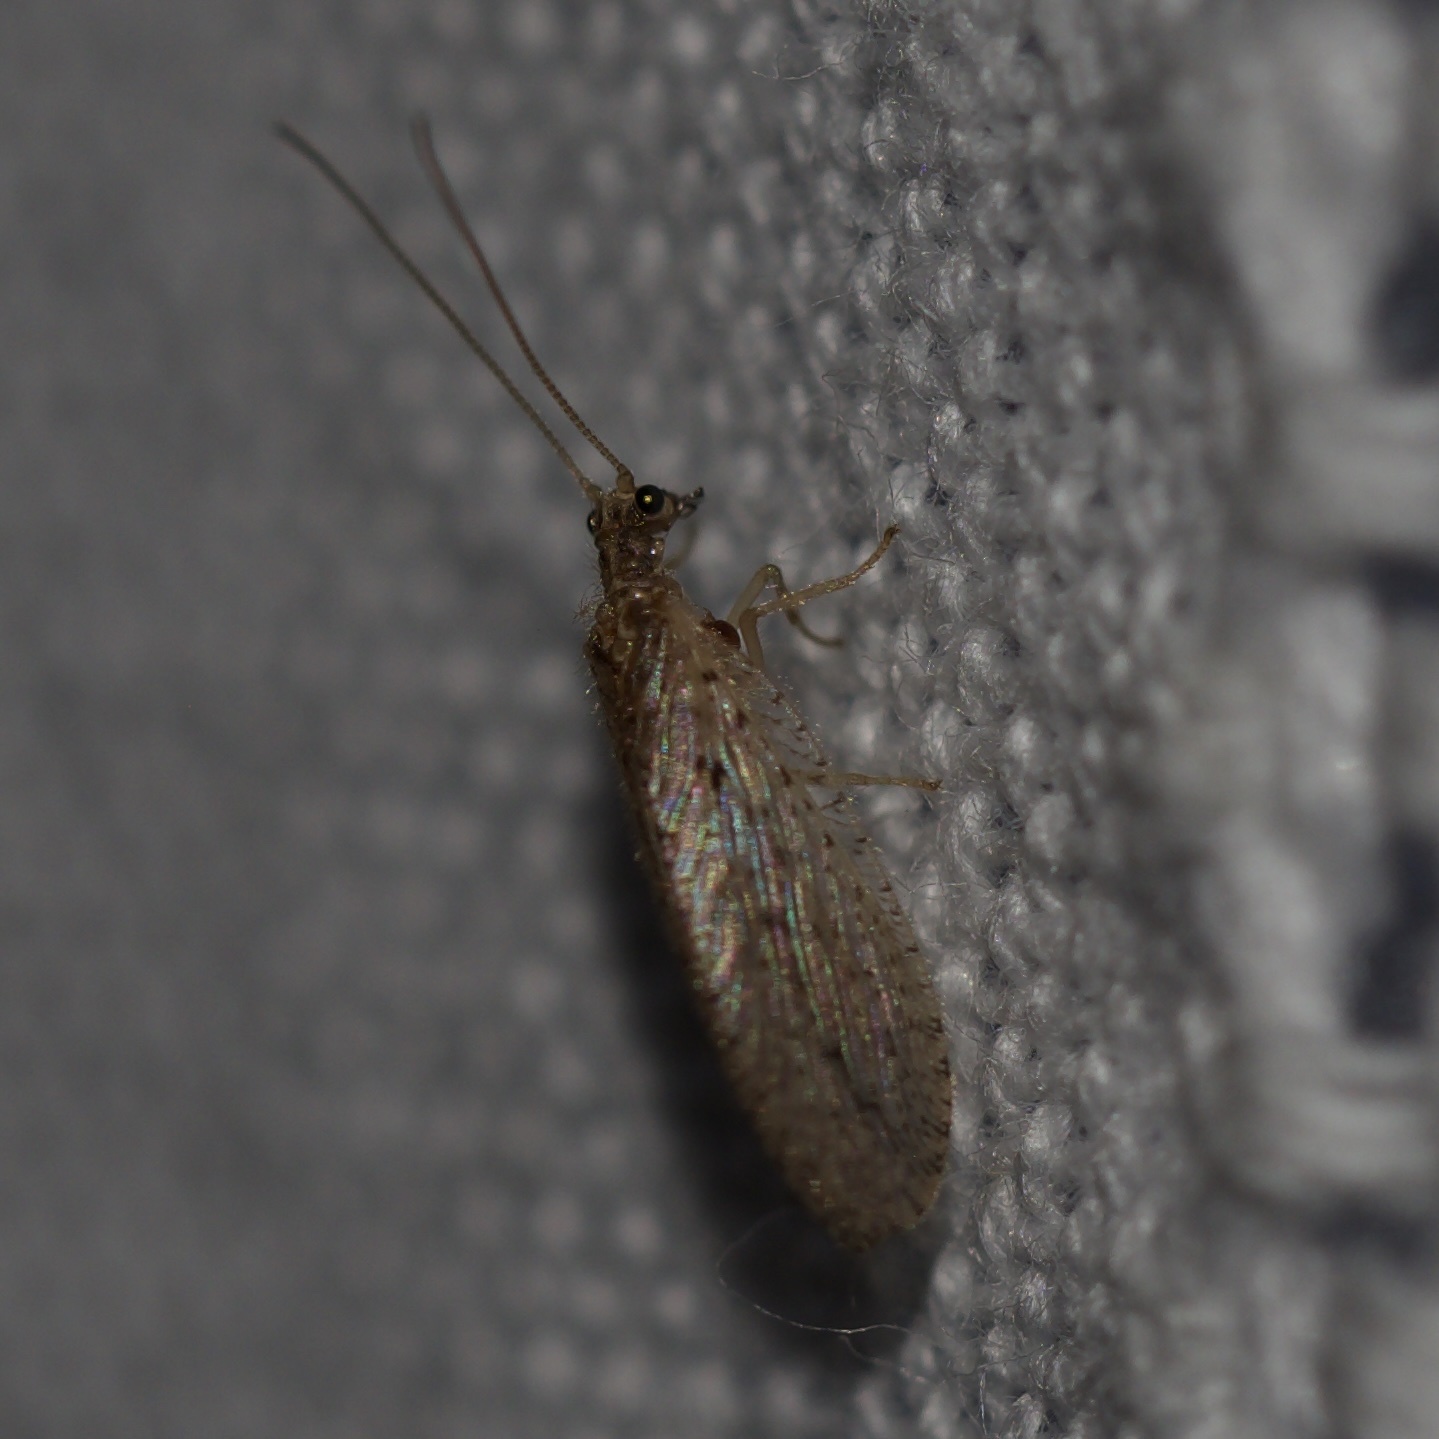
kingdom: Animalia
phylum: Arthropoda
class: Insecta
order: Neuroptera
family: Hemerobiidae
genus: Micromus
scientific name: Micromus subanticus
